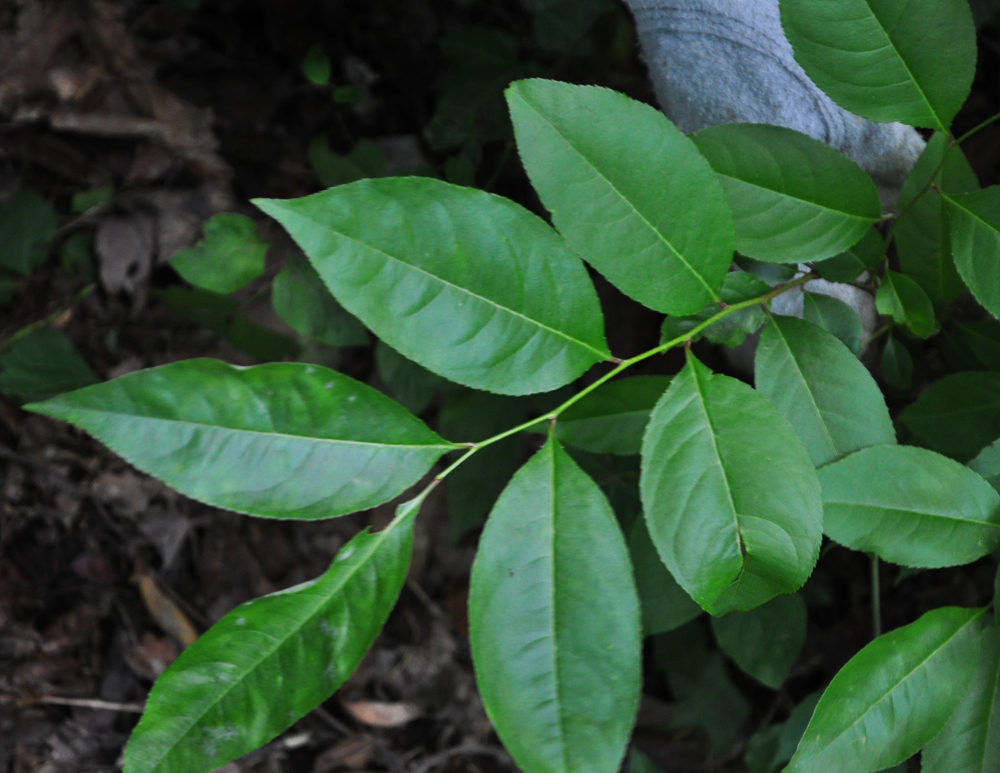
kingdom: Plantae
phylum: Tracheophyta
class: Magnoliopsida
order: Rosales
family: Rosaceae
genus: Prunus
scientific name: Prunus serotina
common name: Black cherry
